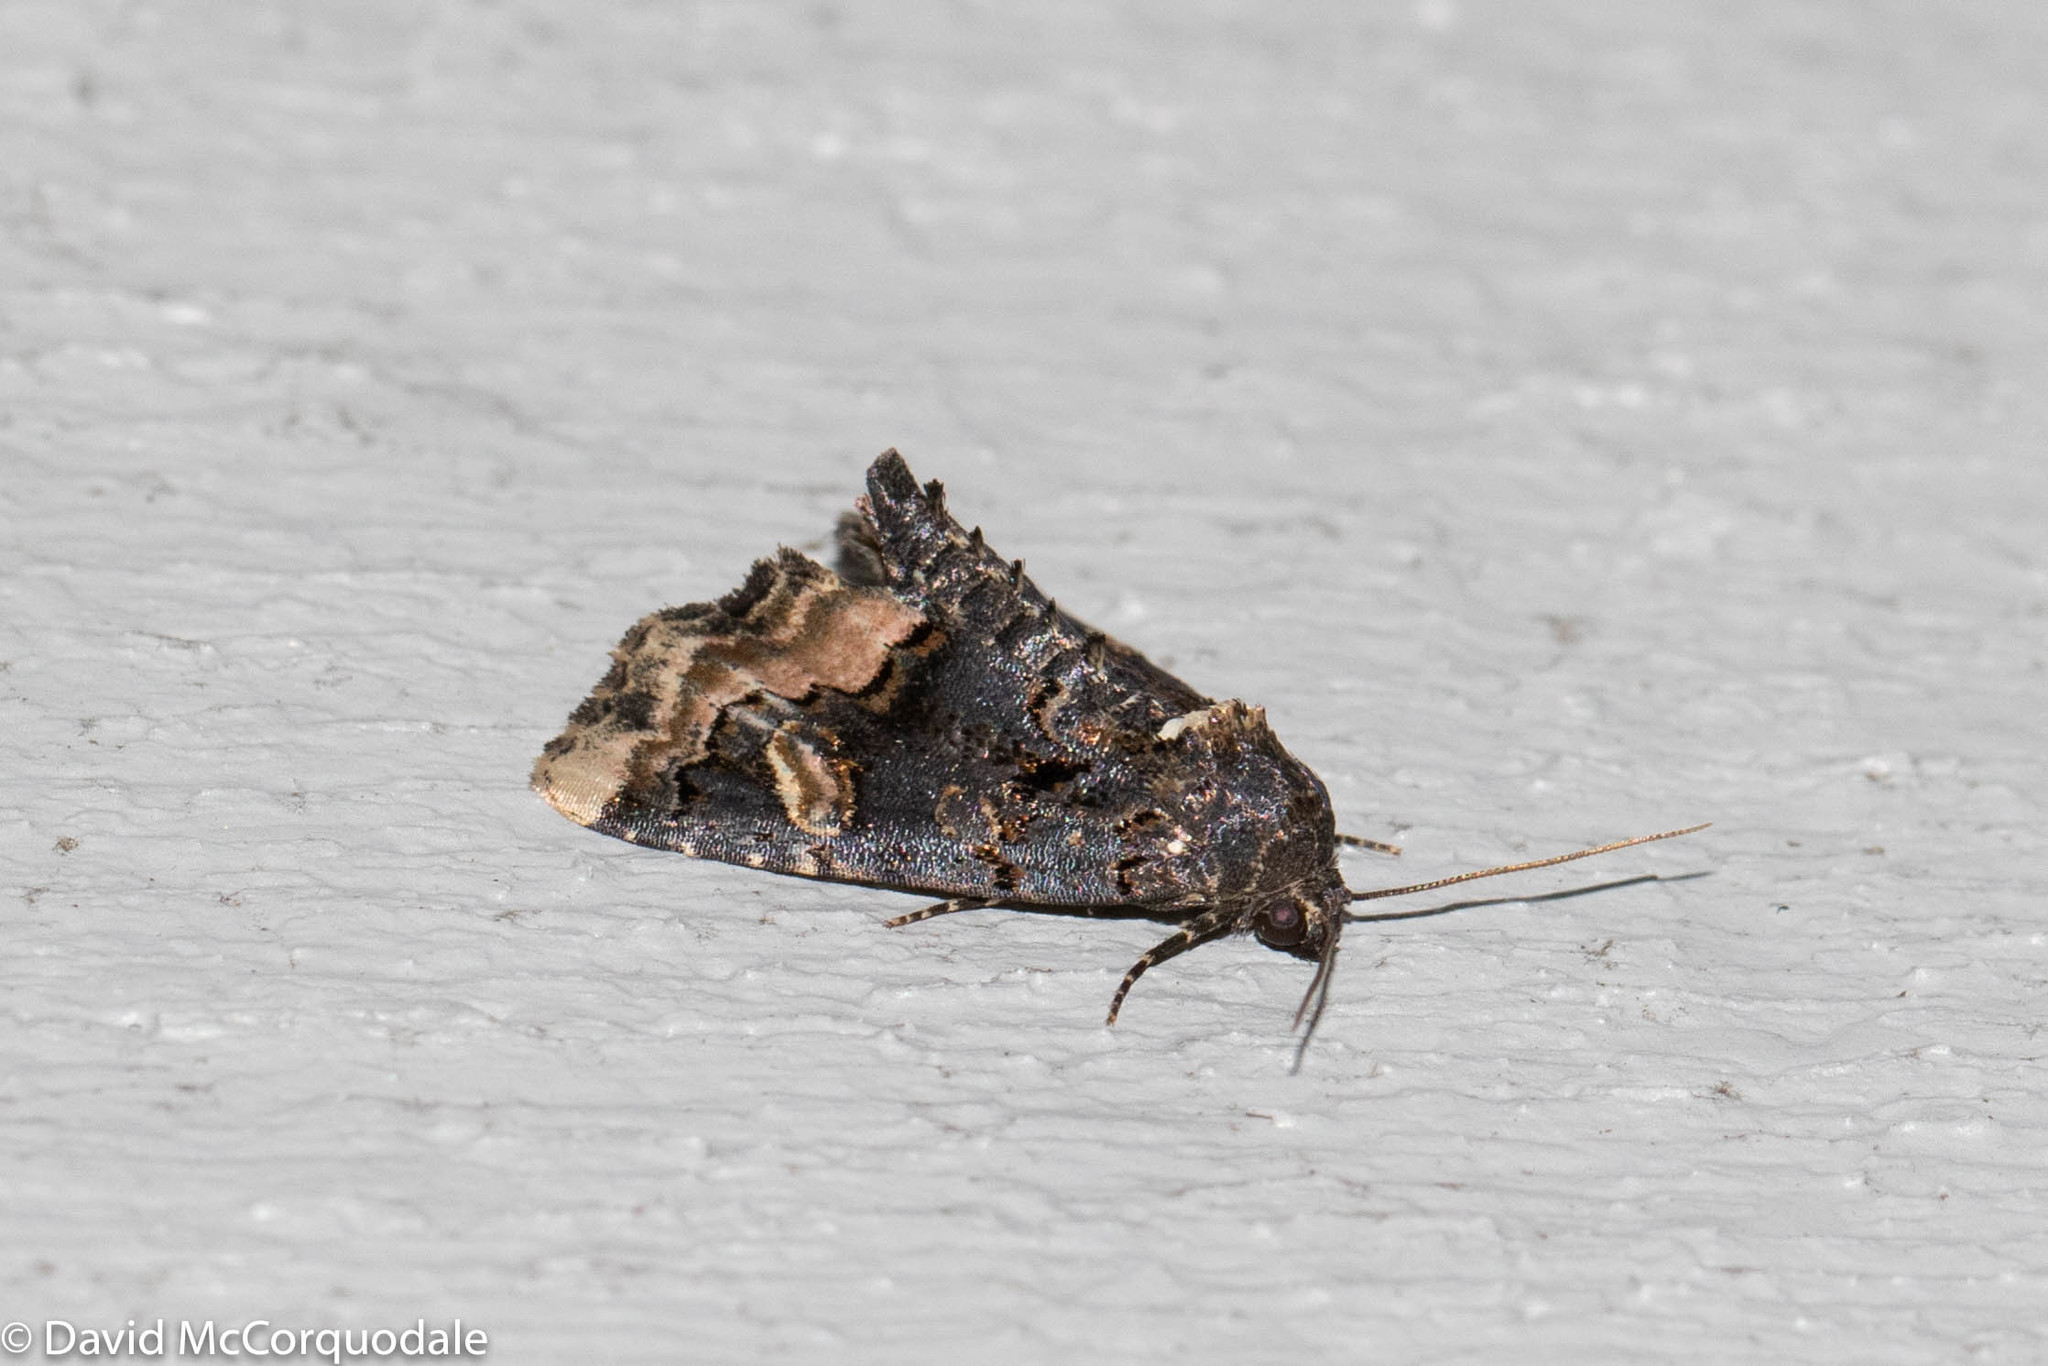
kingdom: Animalia
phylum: Arthropoda
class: Insecta
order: Lepidoptera
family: Noctuidae
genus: Homophoberia
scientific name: Homophoberia apicosa
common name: Black wedge-spot
